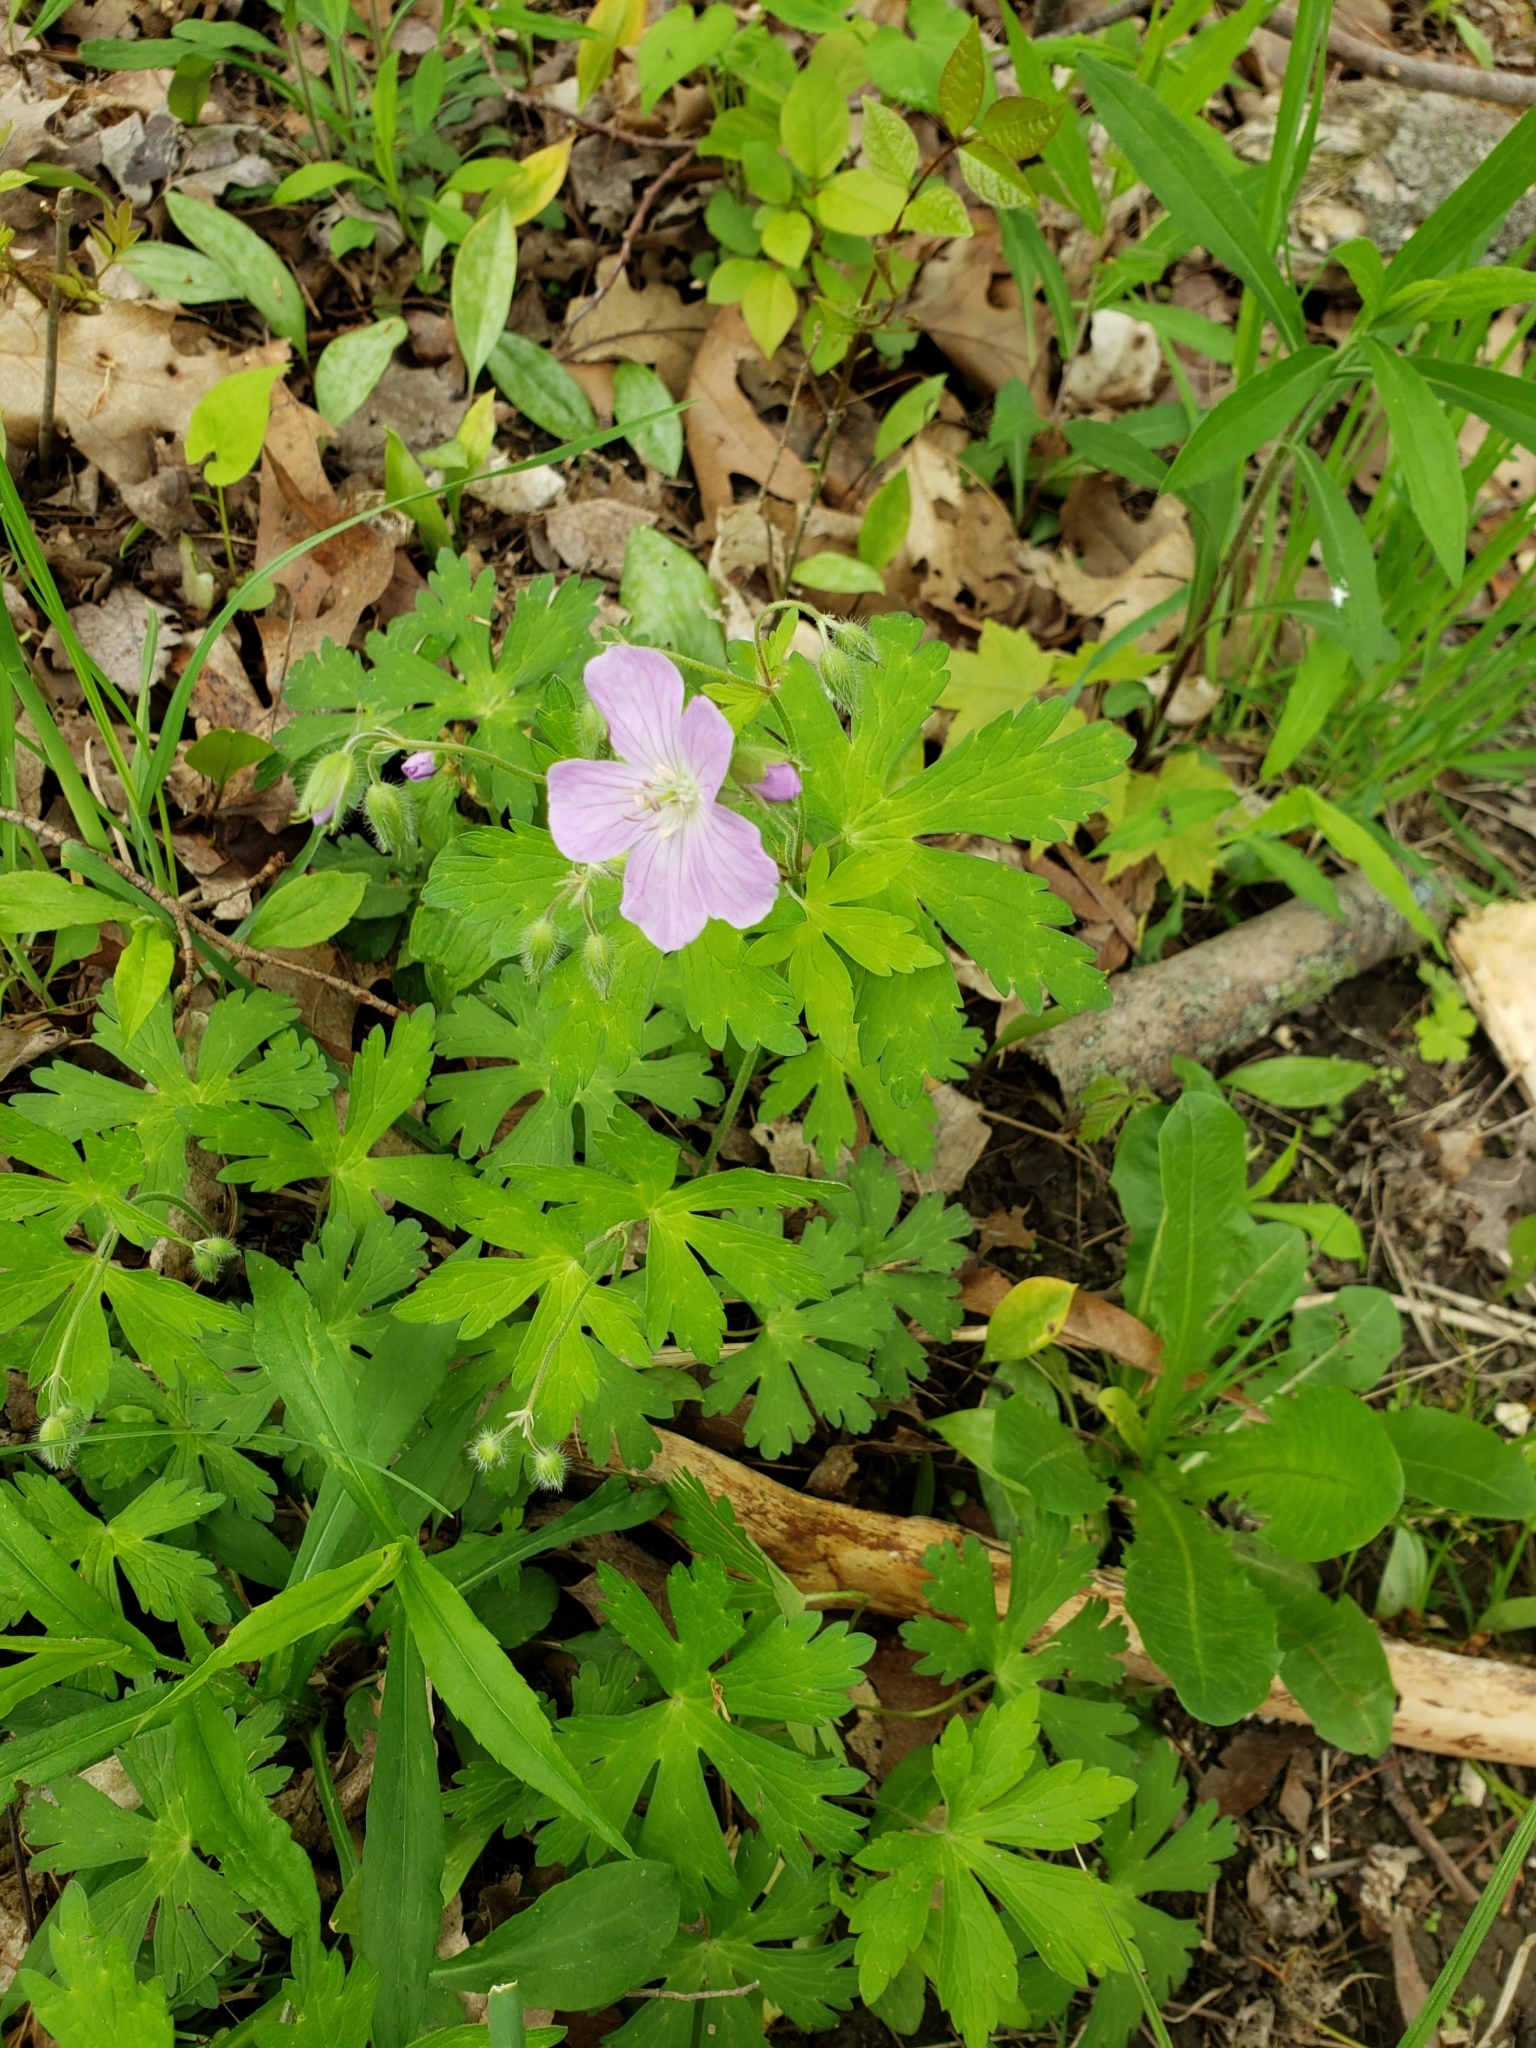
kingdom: Plantae
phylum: Tracheophyta
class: Magnoliopsida
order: Geraniales
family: Geraniaceae
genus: Geranium
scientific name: Geranium maculatum
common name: Spotted geranium
